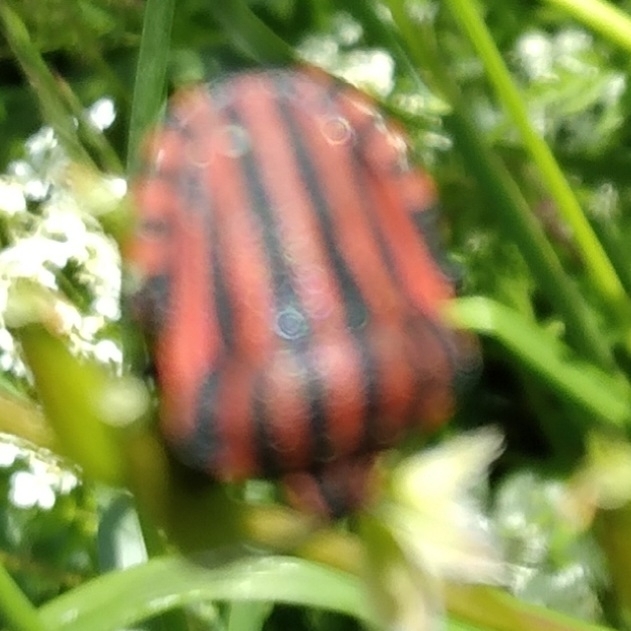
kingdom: Animalia
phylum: Arthropoda
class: Insecta
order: Hemiptera
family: Pentatomidae
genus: Graphosoma
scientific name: Graphosoma italicum
